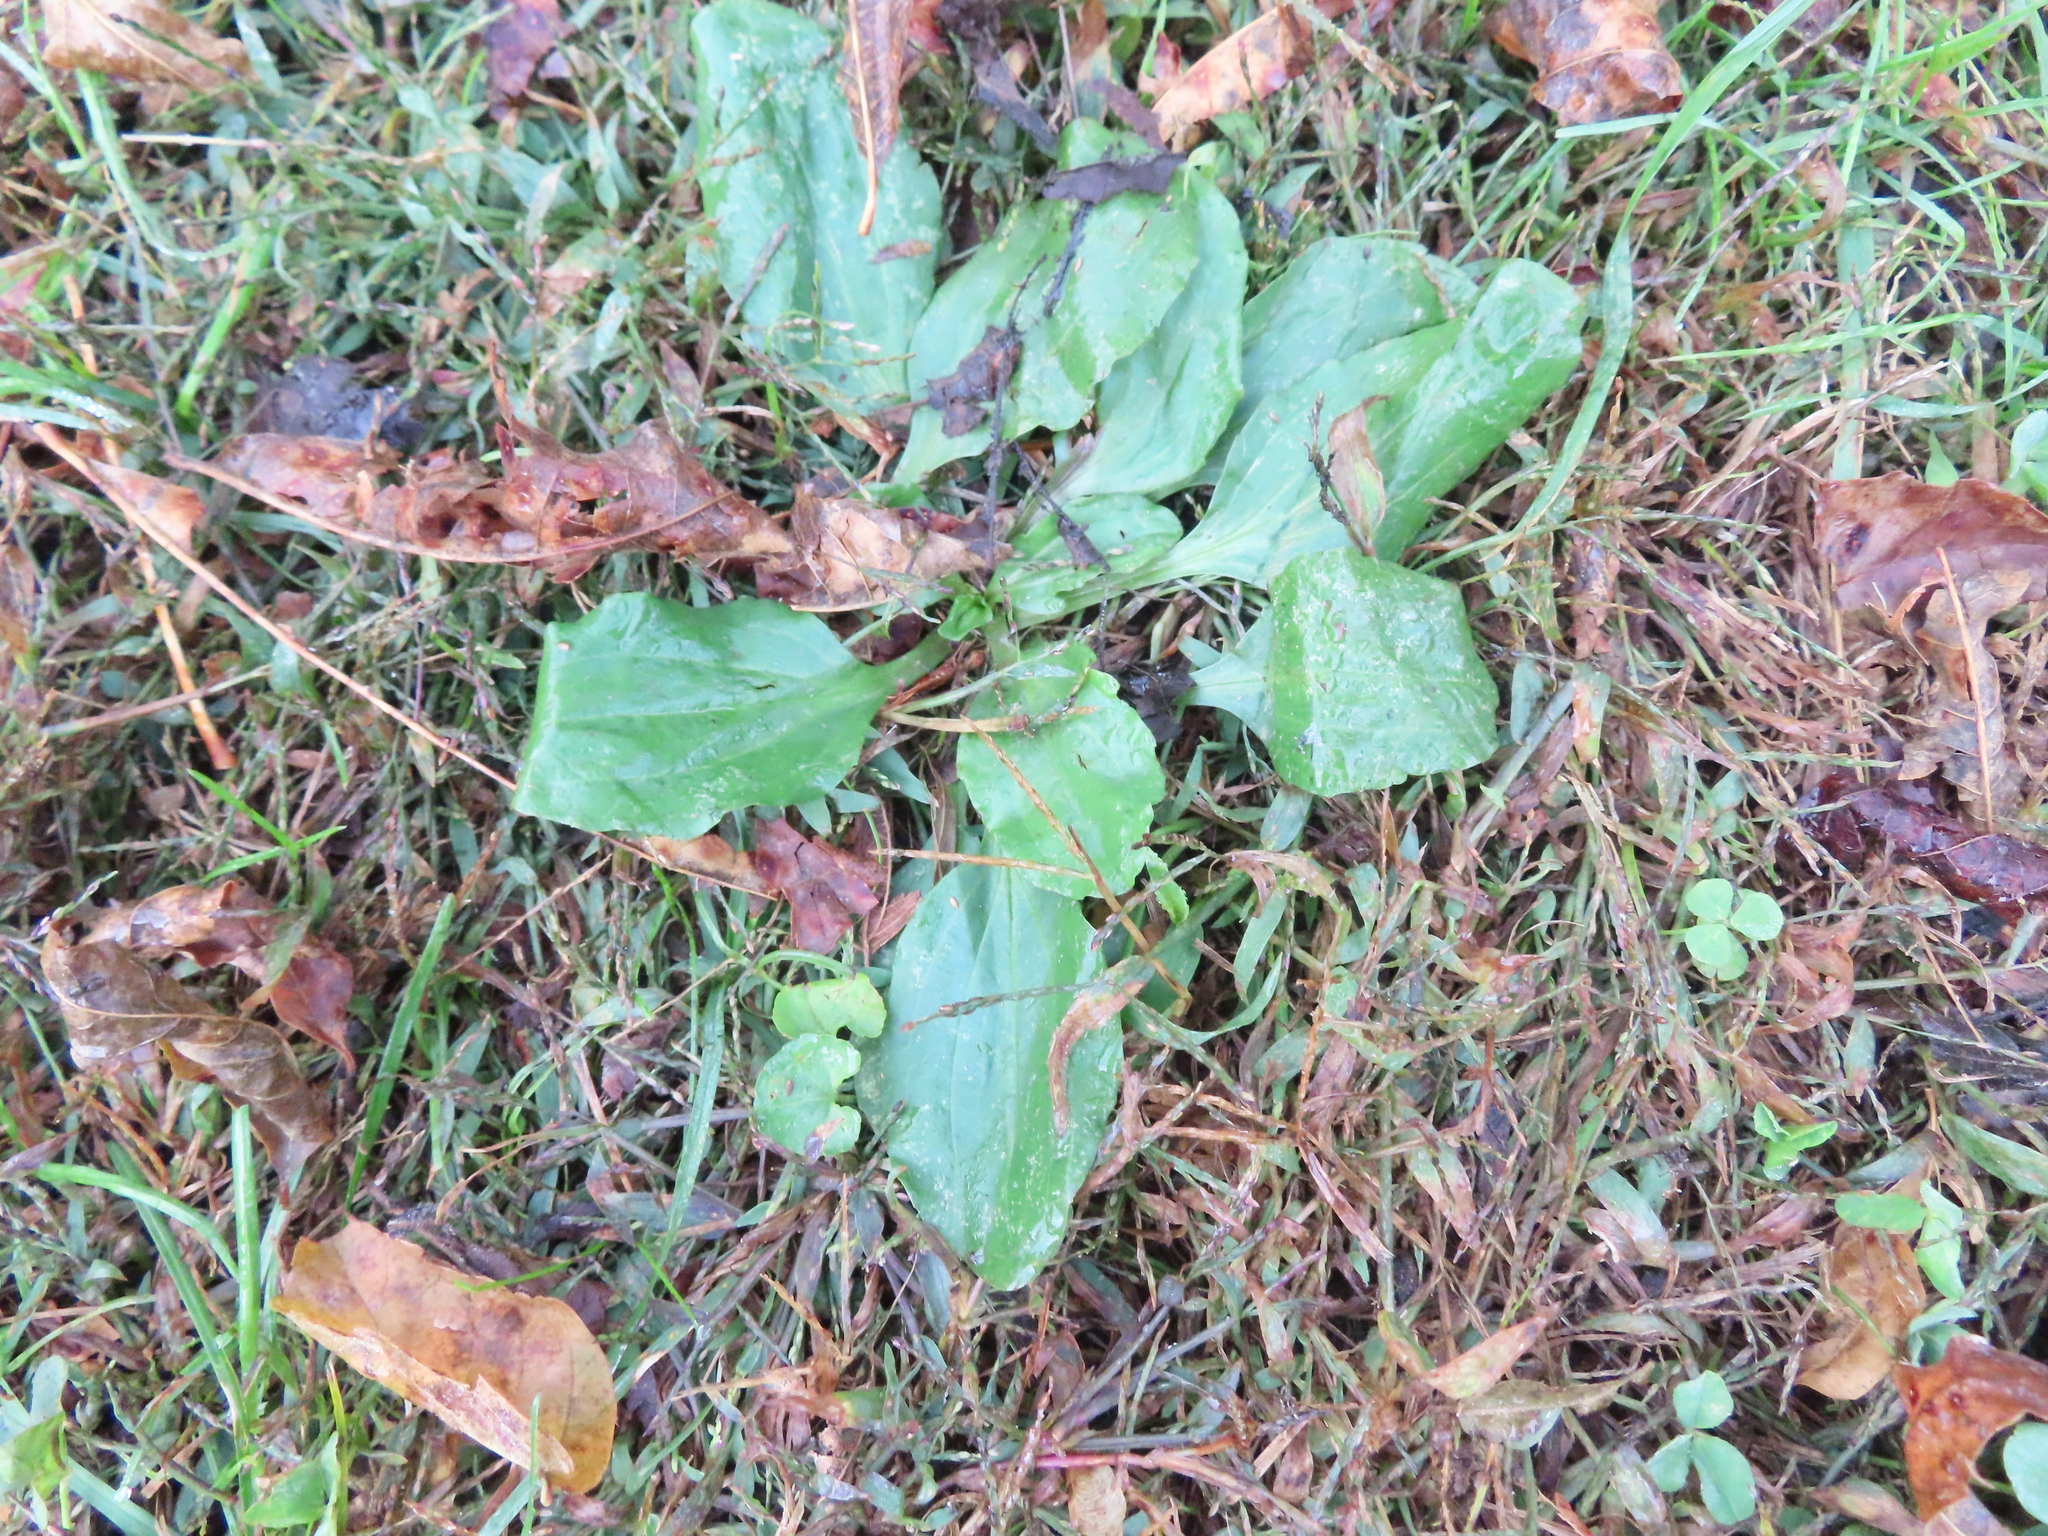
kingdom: Plantae
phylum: Tracheophyta
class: Magnoliopsida
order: Lamiales
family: Plantaginaceae
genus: Plantago
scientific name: Plantago rugelii
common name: American plantain
